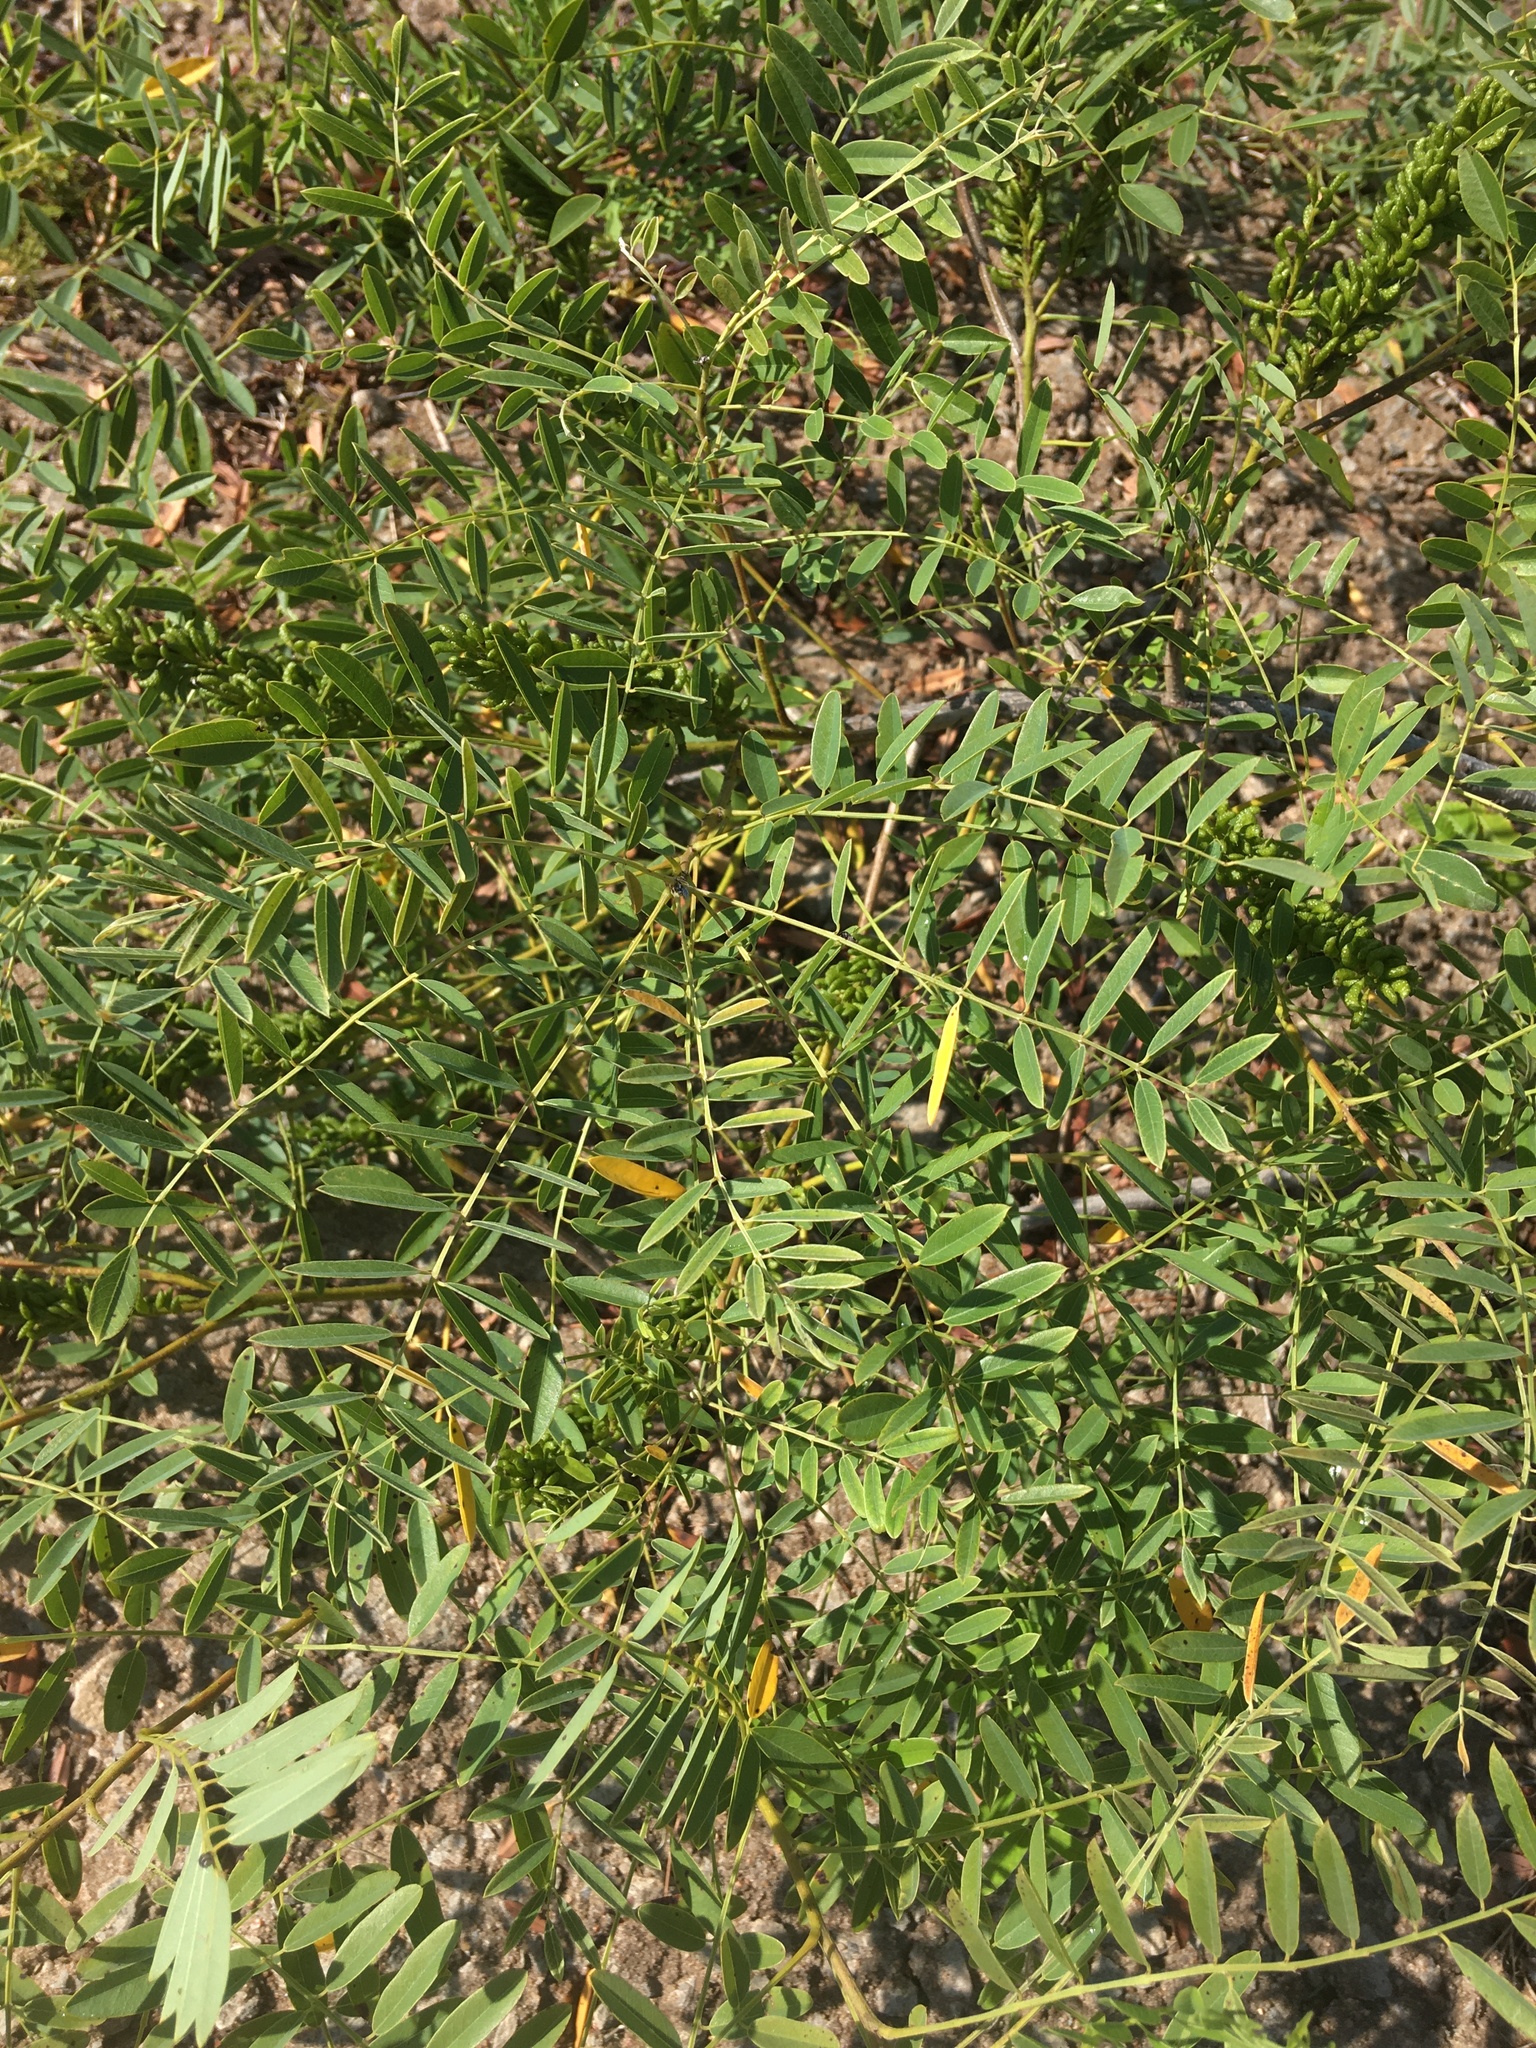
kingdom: Plantae
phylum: Tracheophyta
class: Magnoliopsida
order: Fabales
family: Fabaceae
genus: Amorpha
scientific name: Amorpha fruticosa
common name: False indigo
